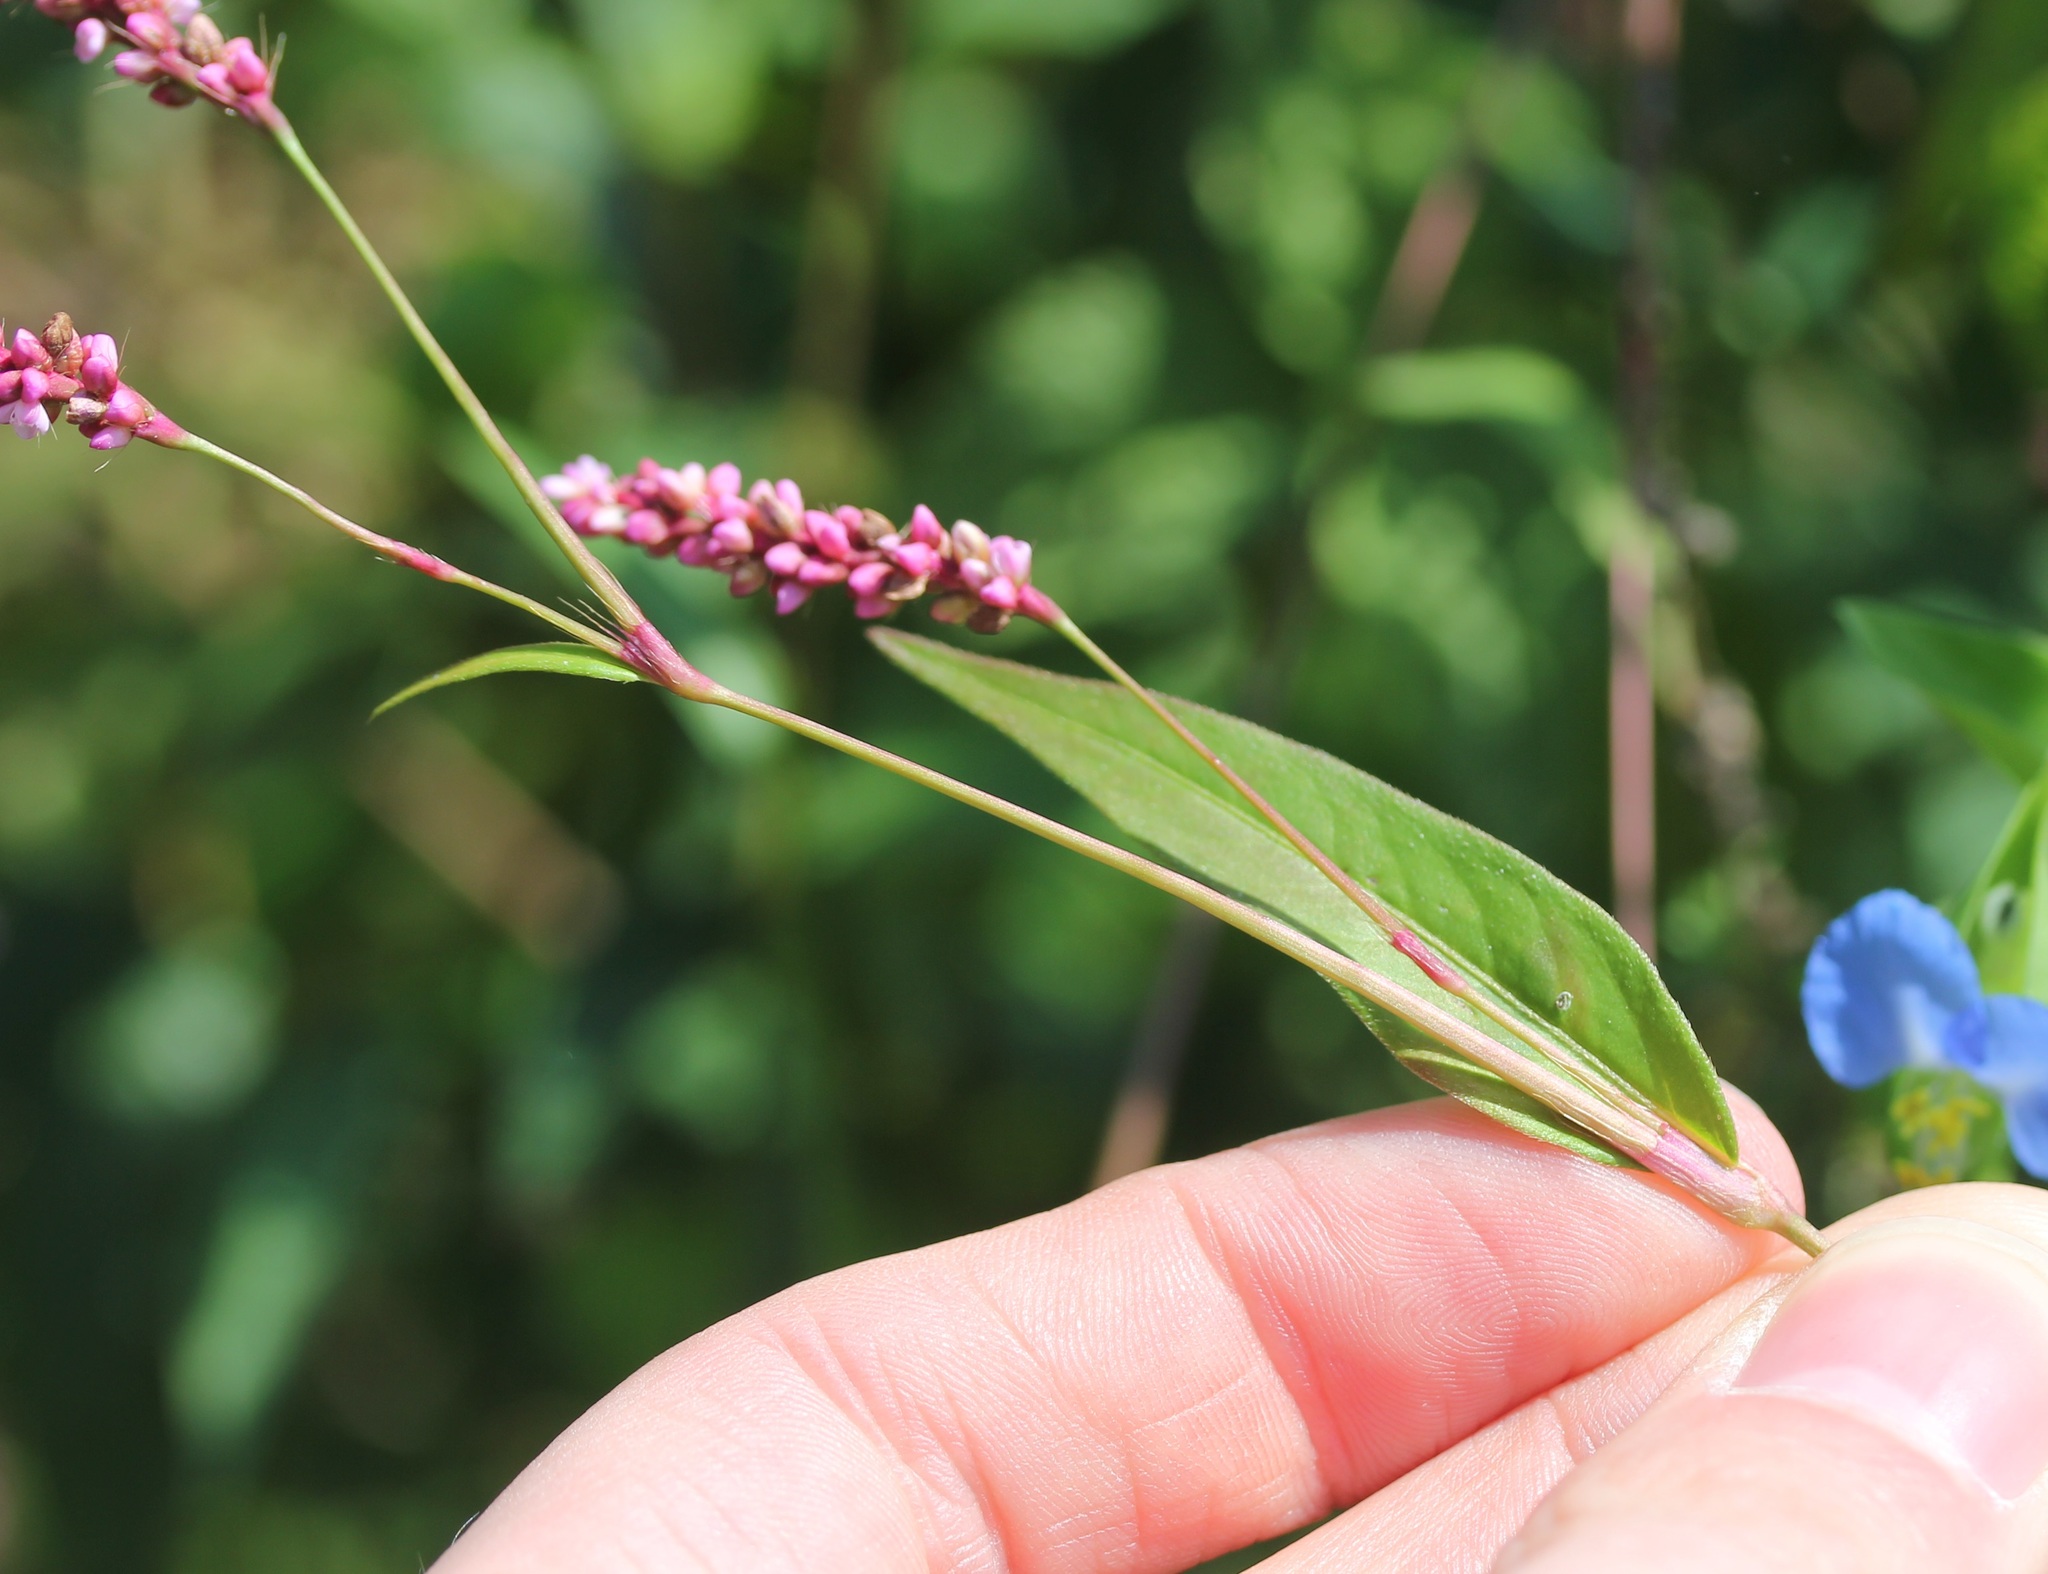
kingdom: Plantae
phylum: Tracheophyta
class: Magnoliopsida
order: Caryophyllales
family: Polygonaceae
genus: Persicaria
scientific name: Persicaria longiseta
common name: Bristly lady's-thumb
